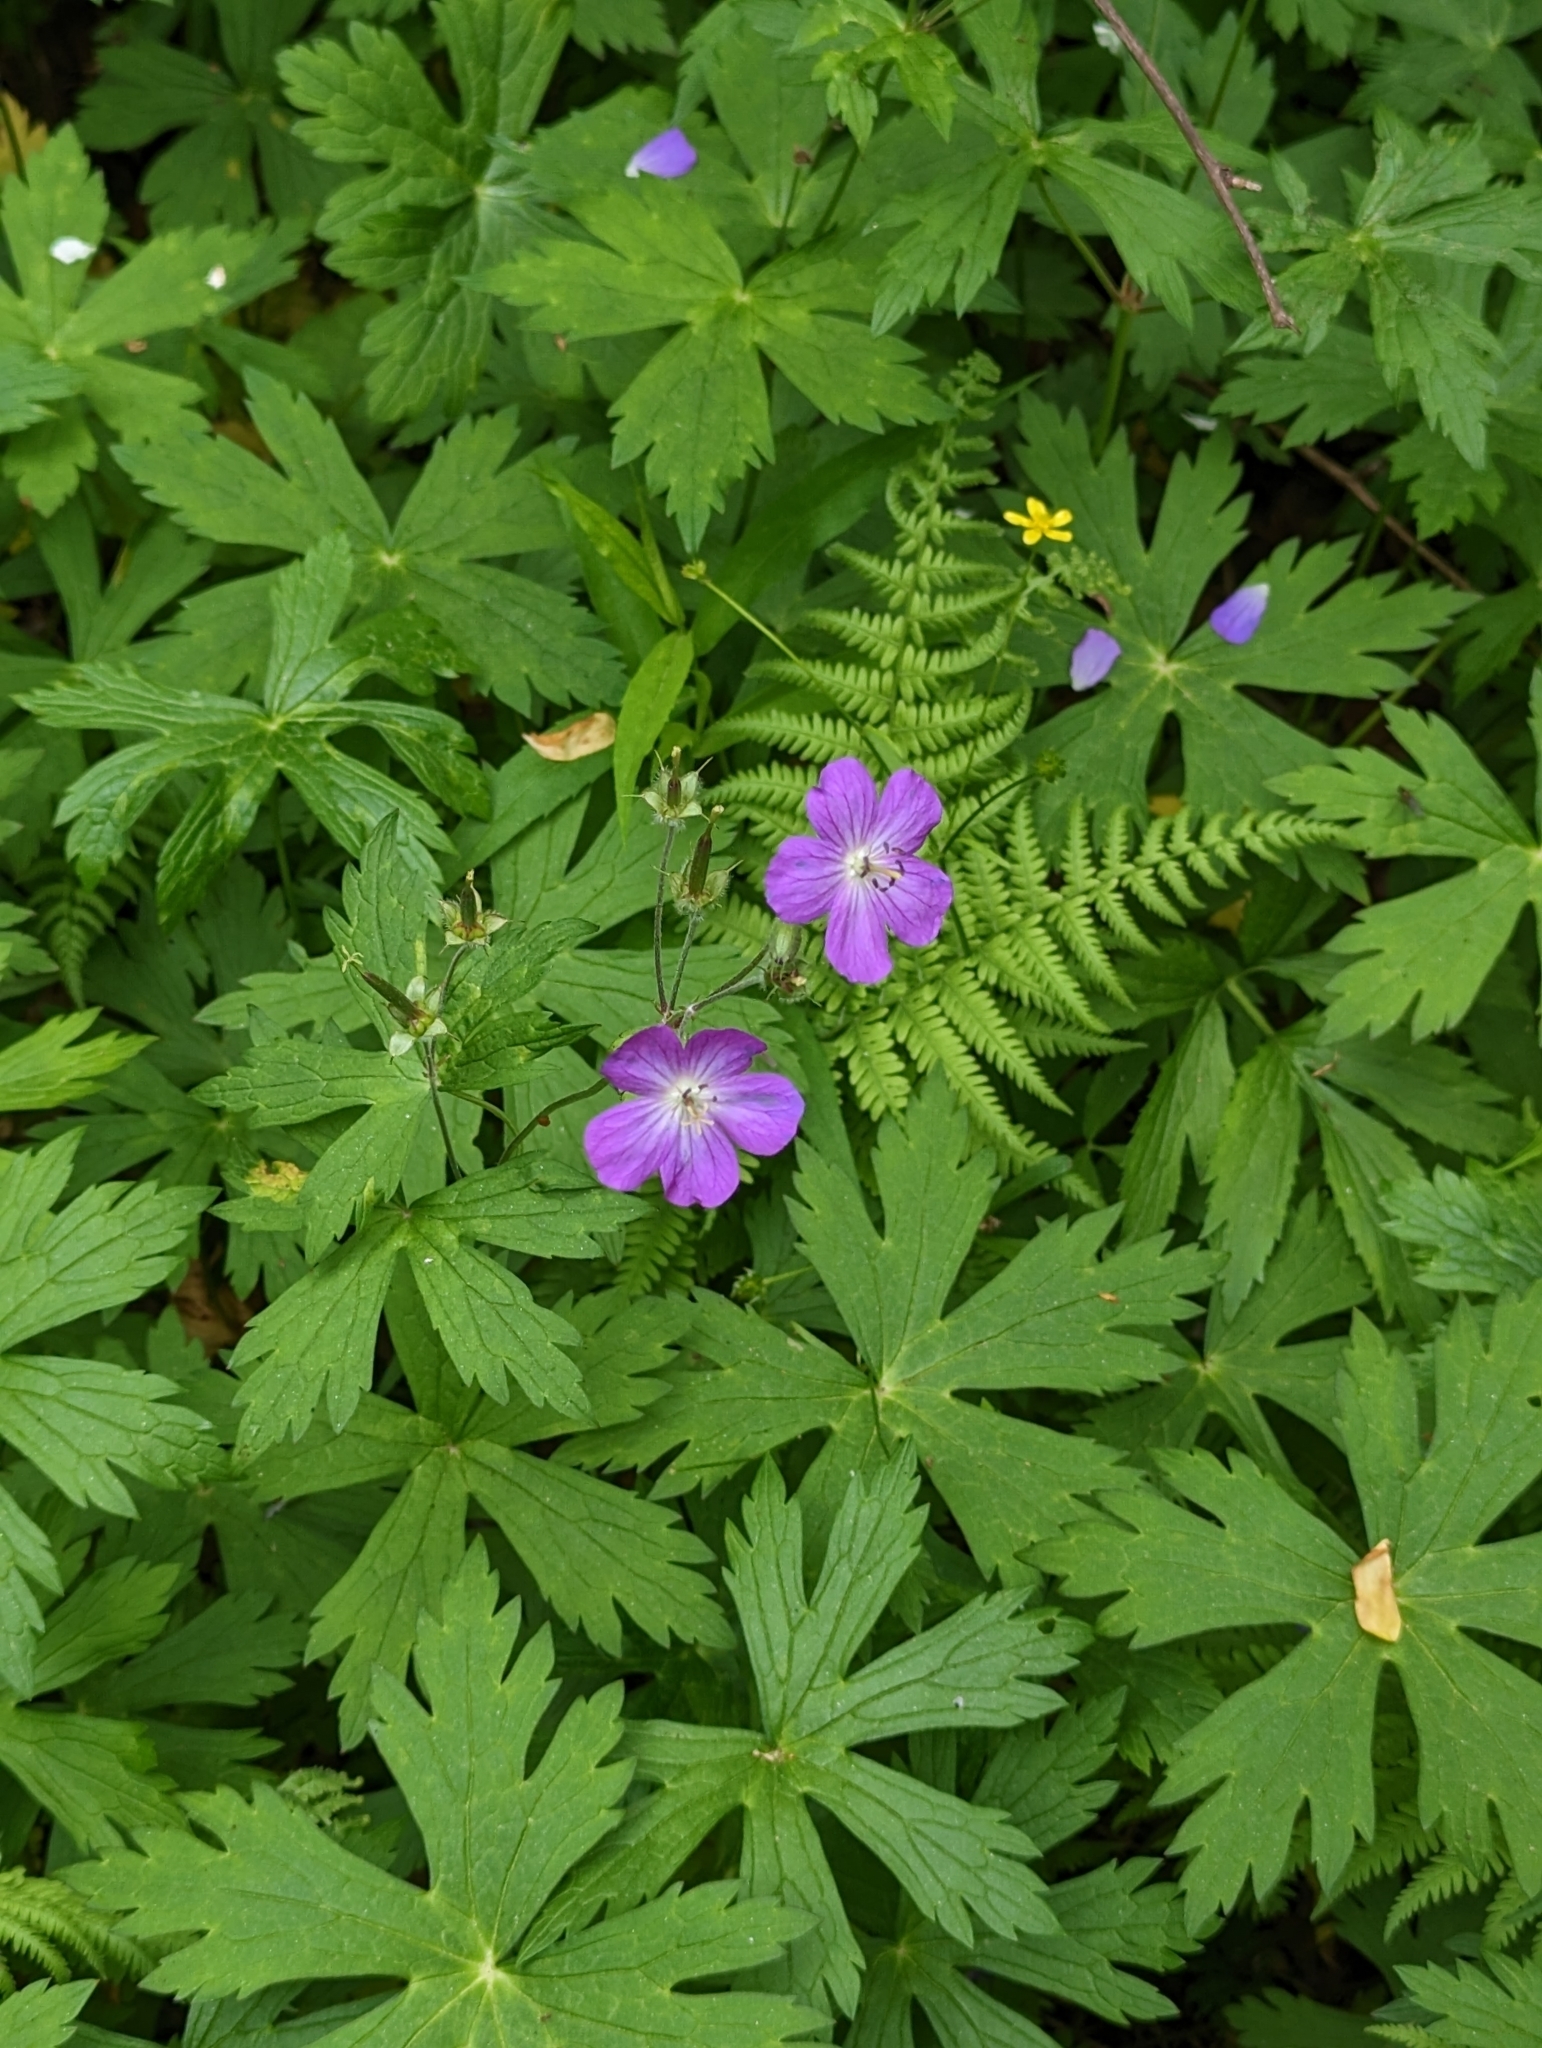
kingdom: Plantae
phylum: Tracheophyta
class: Magnoliopsida
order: Geraniales
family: Geraniaceae
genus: Geranium
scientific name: Geranium maculatum
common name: Spotted geranium
